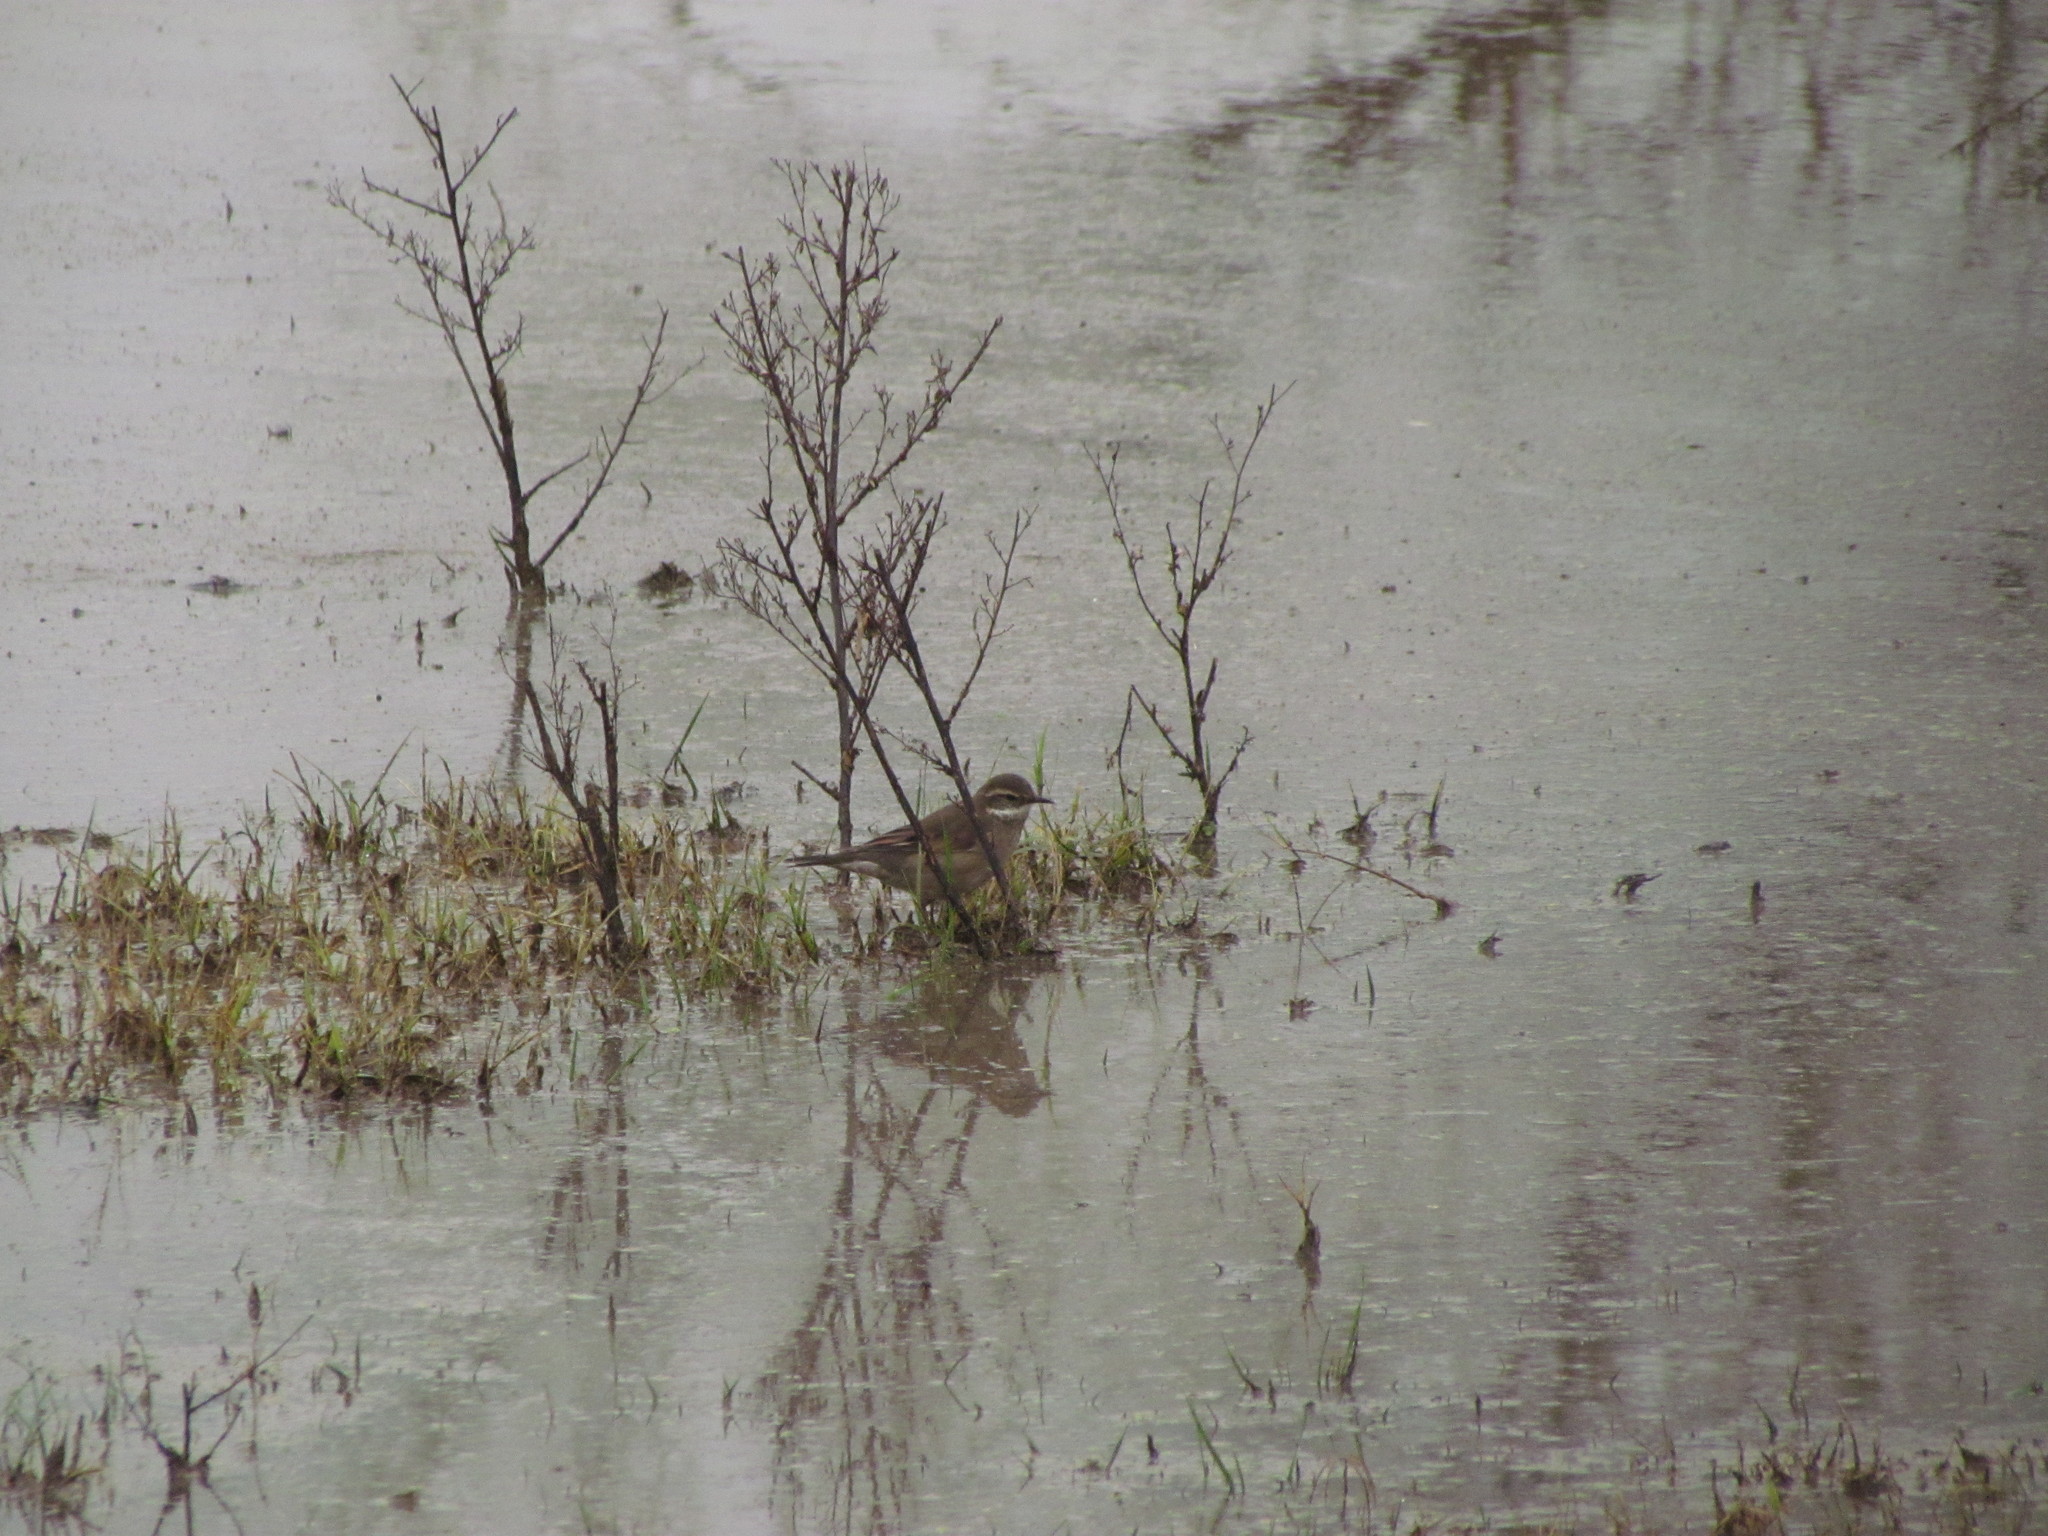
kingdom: Animalia
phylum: Chordata
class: Aves
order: Passeriformes
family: Furnariidae
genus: Cinclodes
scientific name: Cinclodes fuscus
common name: Buff-winged cinclodes
